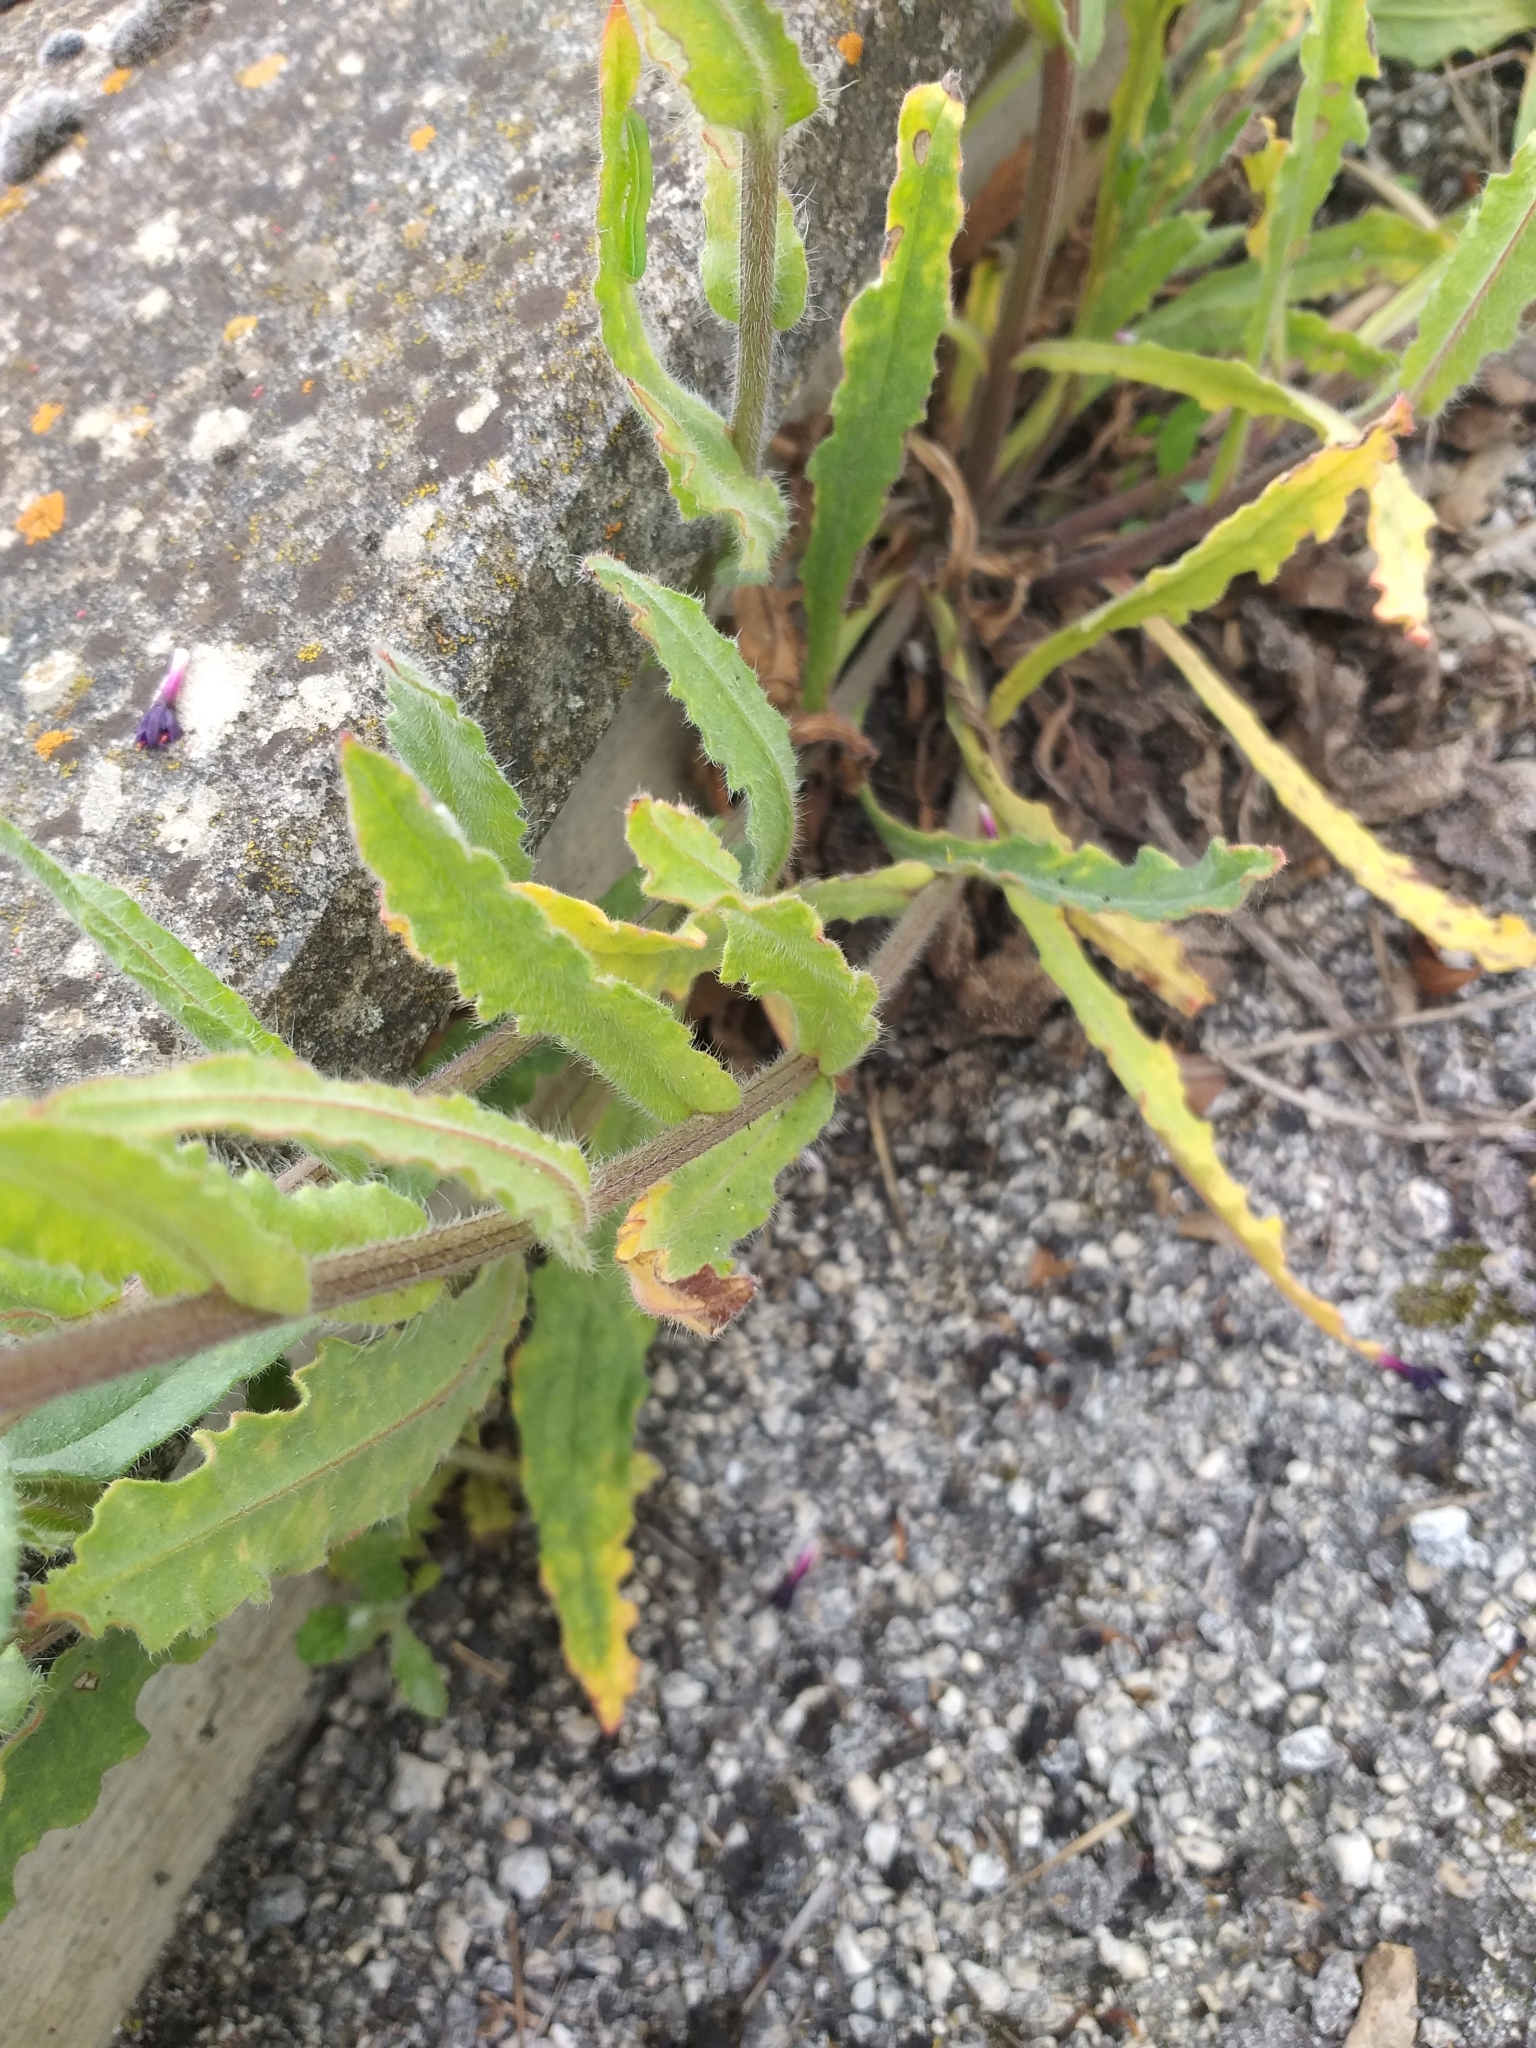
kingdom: Plantae
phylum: Tracheophyta
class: Magnoliopsida
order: Boraginales
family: Boraginaceae
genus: Anchusa
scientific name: Anchusa hybrida
